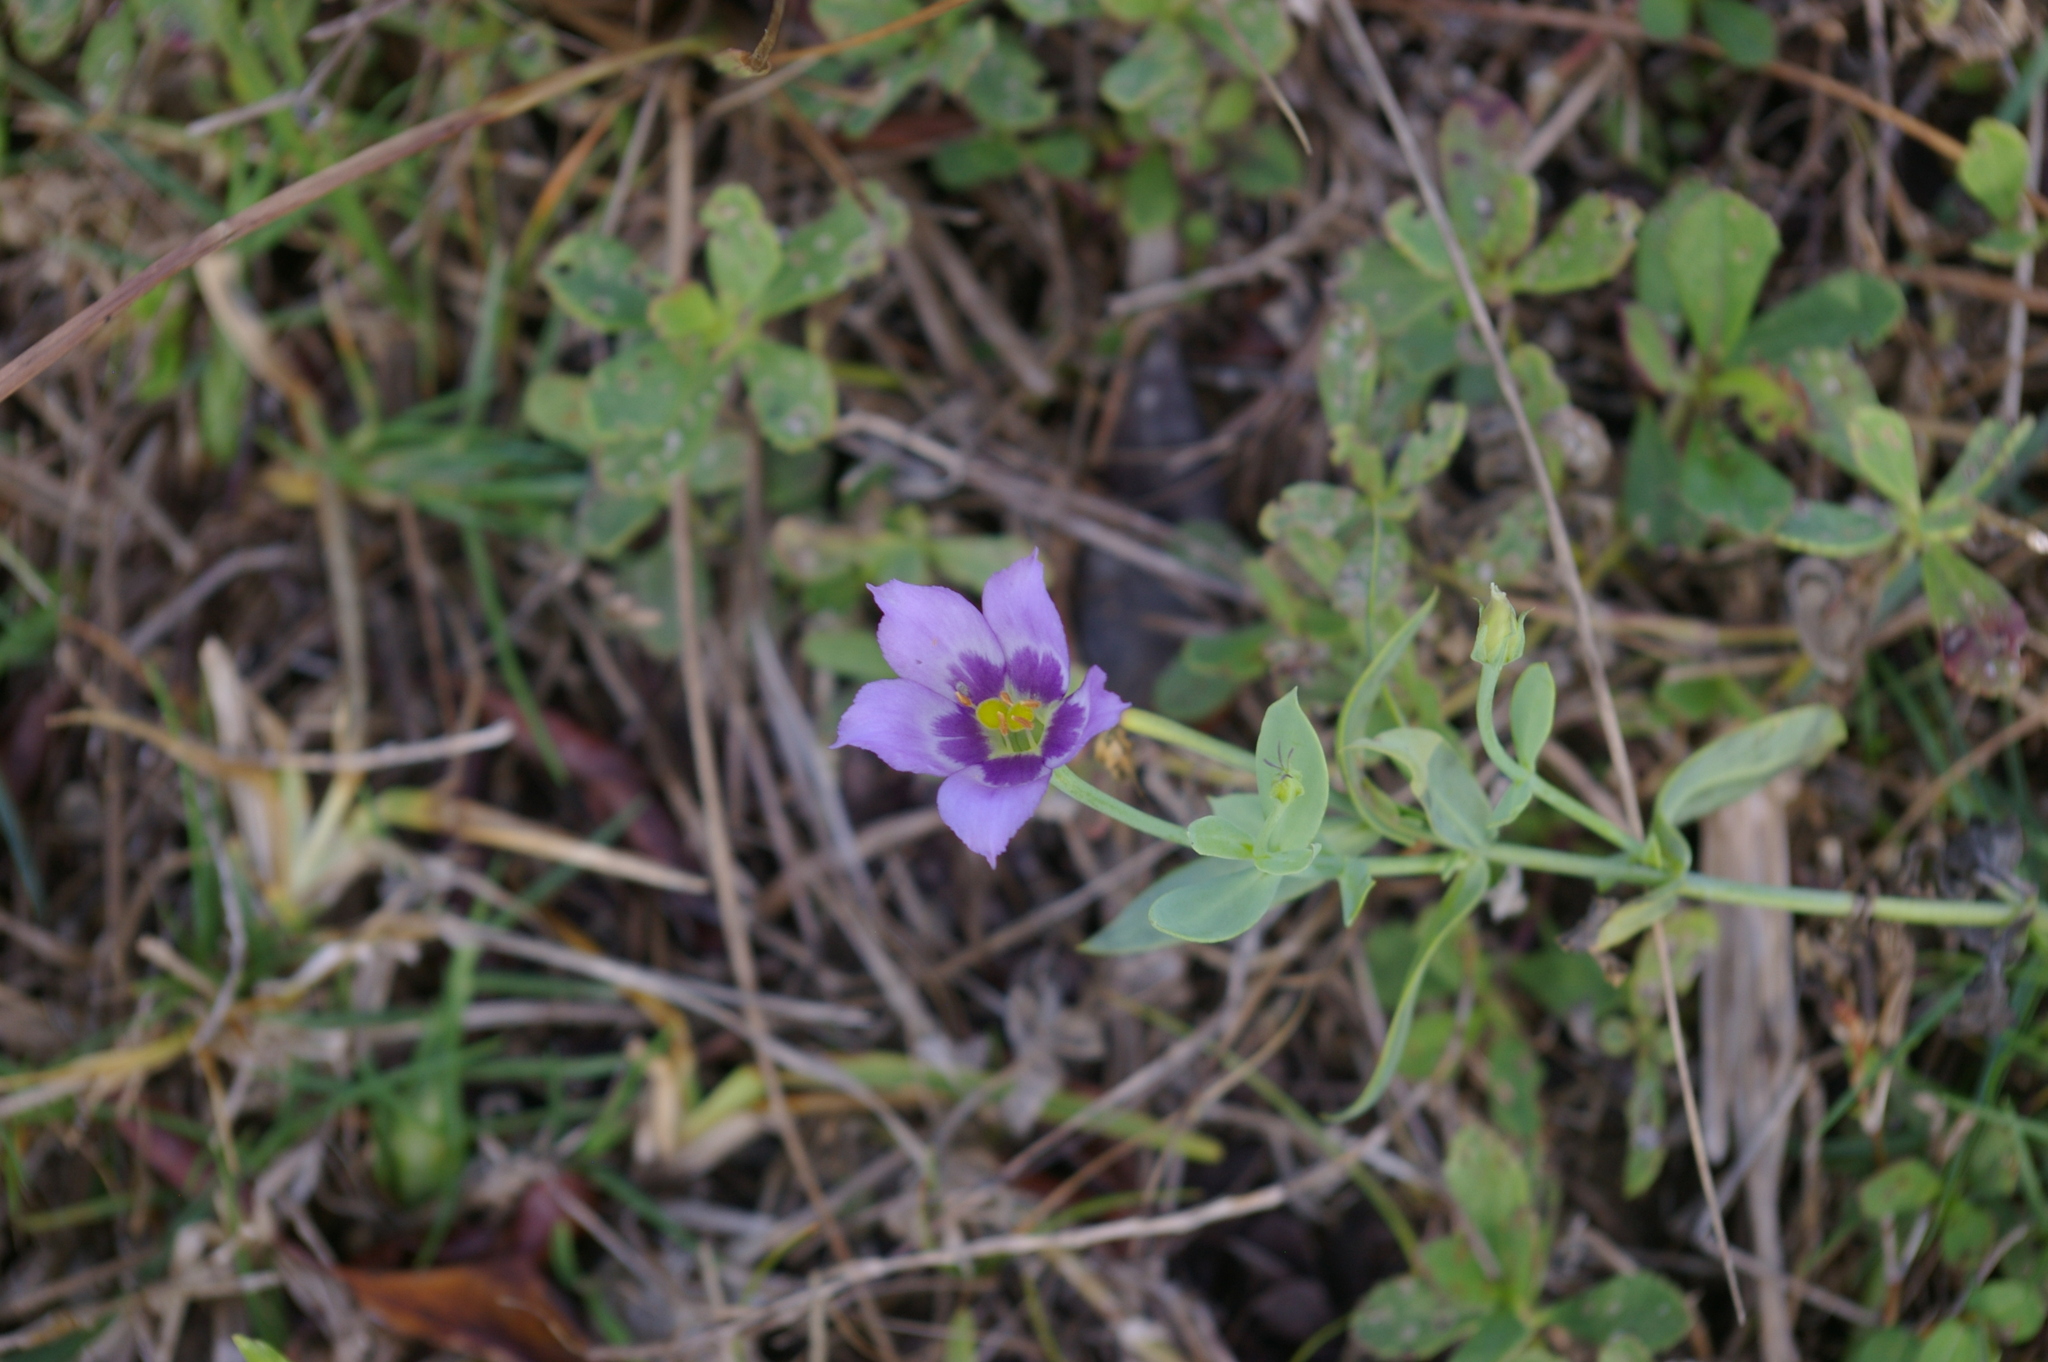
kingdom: Plantae
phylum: Tracheophyta
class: Magnoliopsida
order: Gentianales
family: Gentianaceae
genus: Eustoma
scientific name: Eustoma exaltatum
